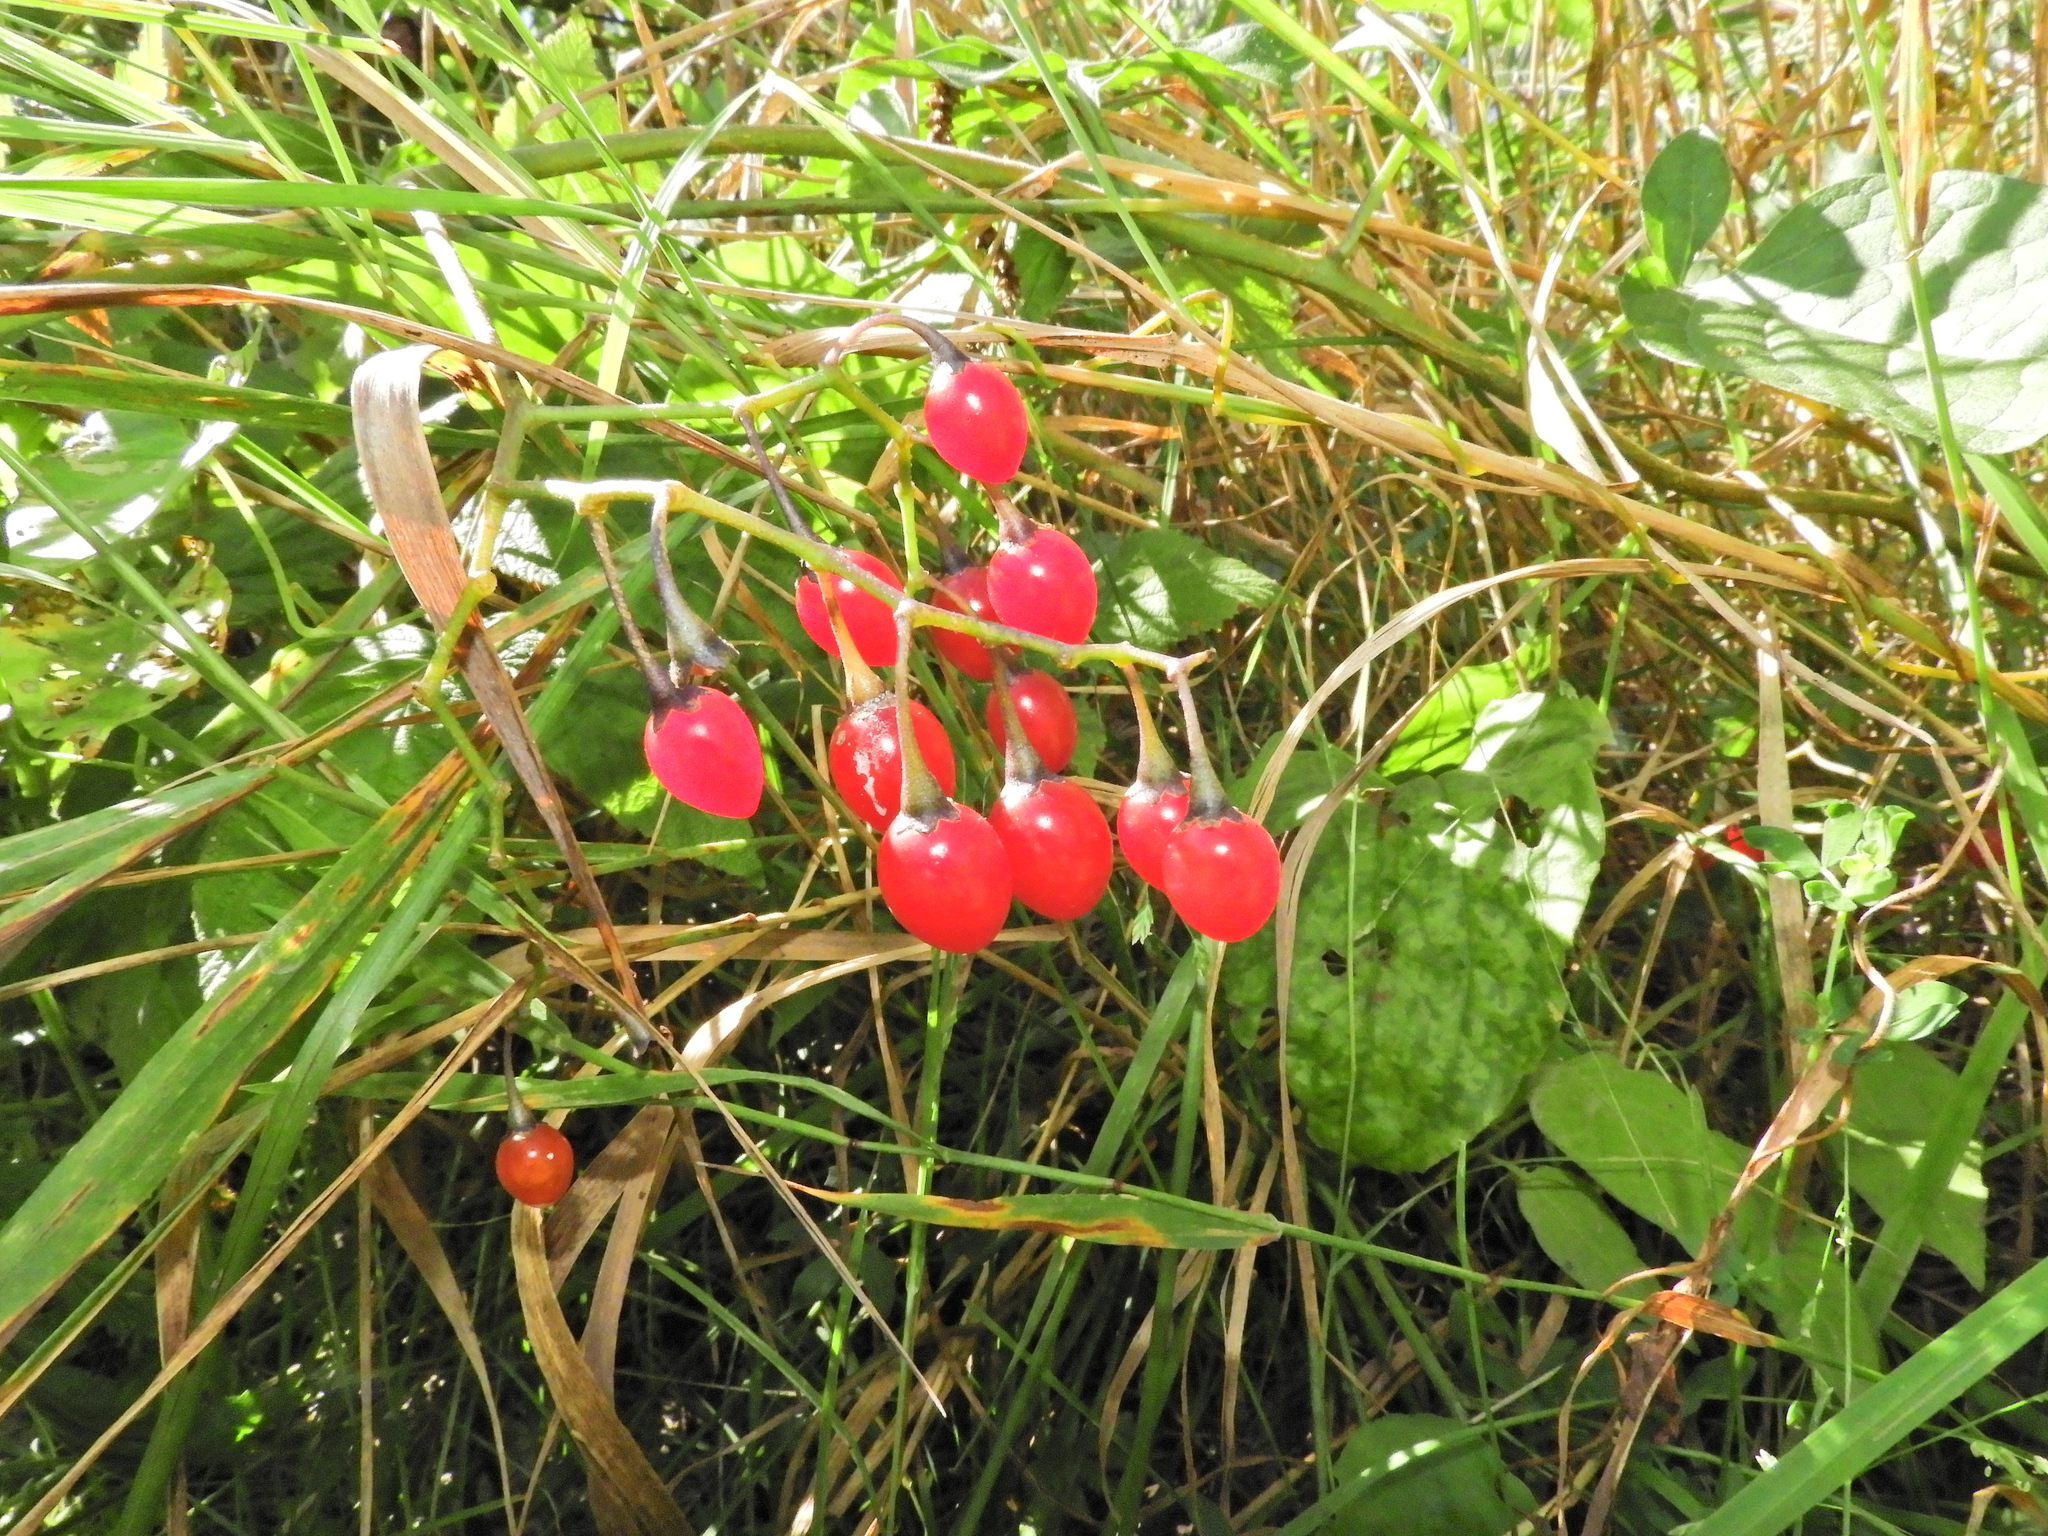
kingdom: Plantae
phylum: Tracheophyta
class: Magnoliopsida
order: Solanales
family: Solanaceae
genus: Solanum
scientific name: Solanum dulcamara
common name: Climbing nightshade
